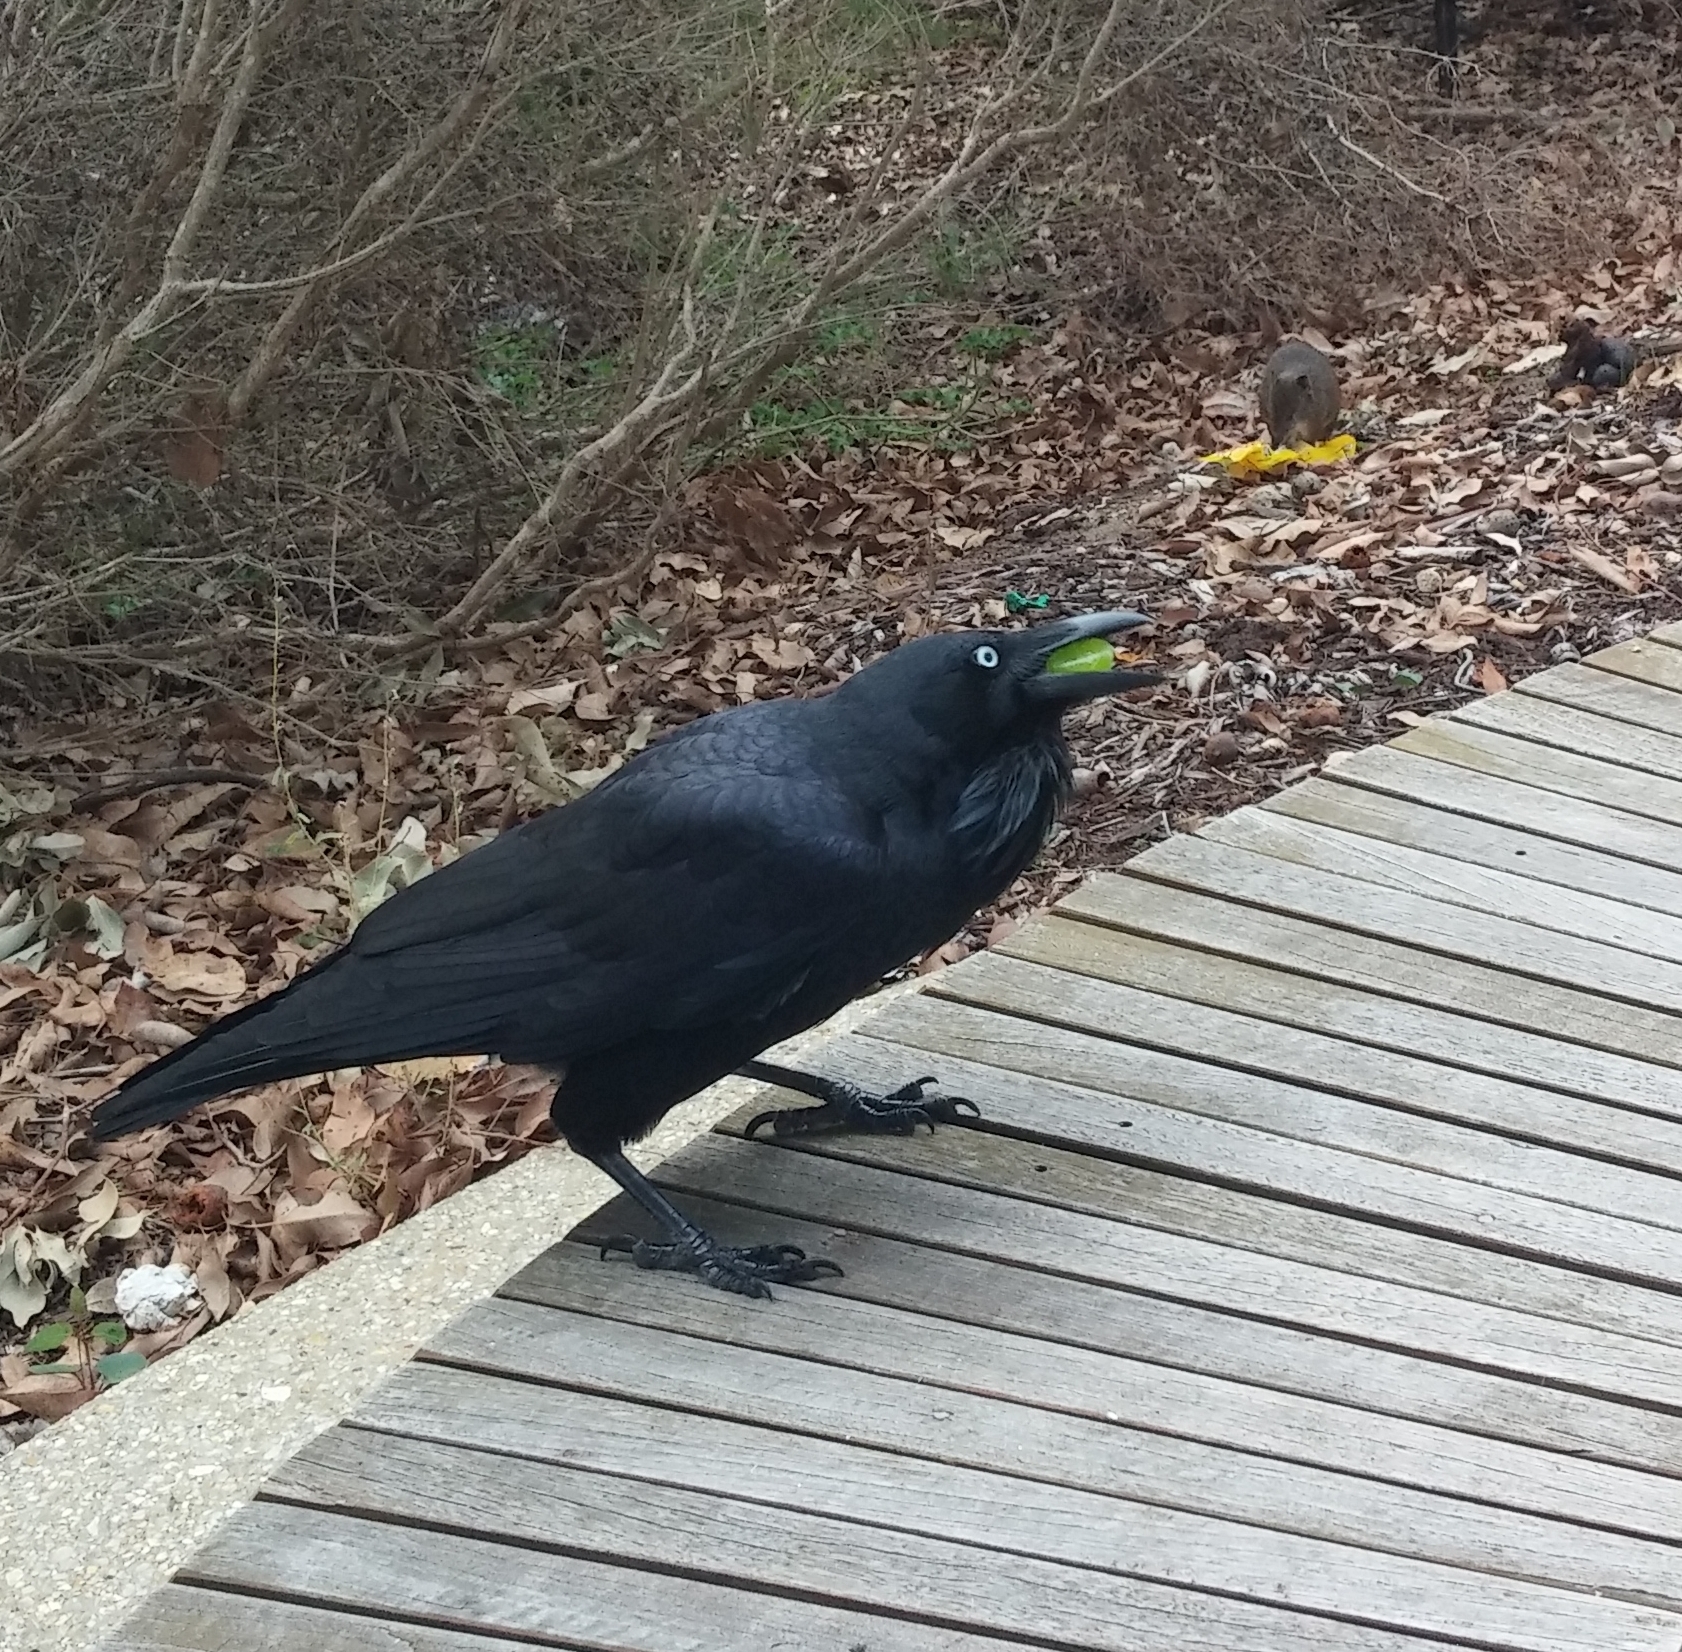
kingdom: Animalia
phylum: Chordata
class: Aves
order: Passeriformes
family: Corvidae
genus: Corvus
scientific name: Corvus coronoides
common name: Australian raven
